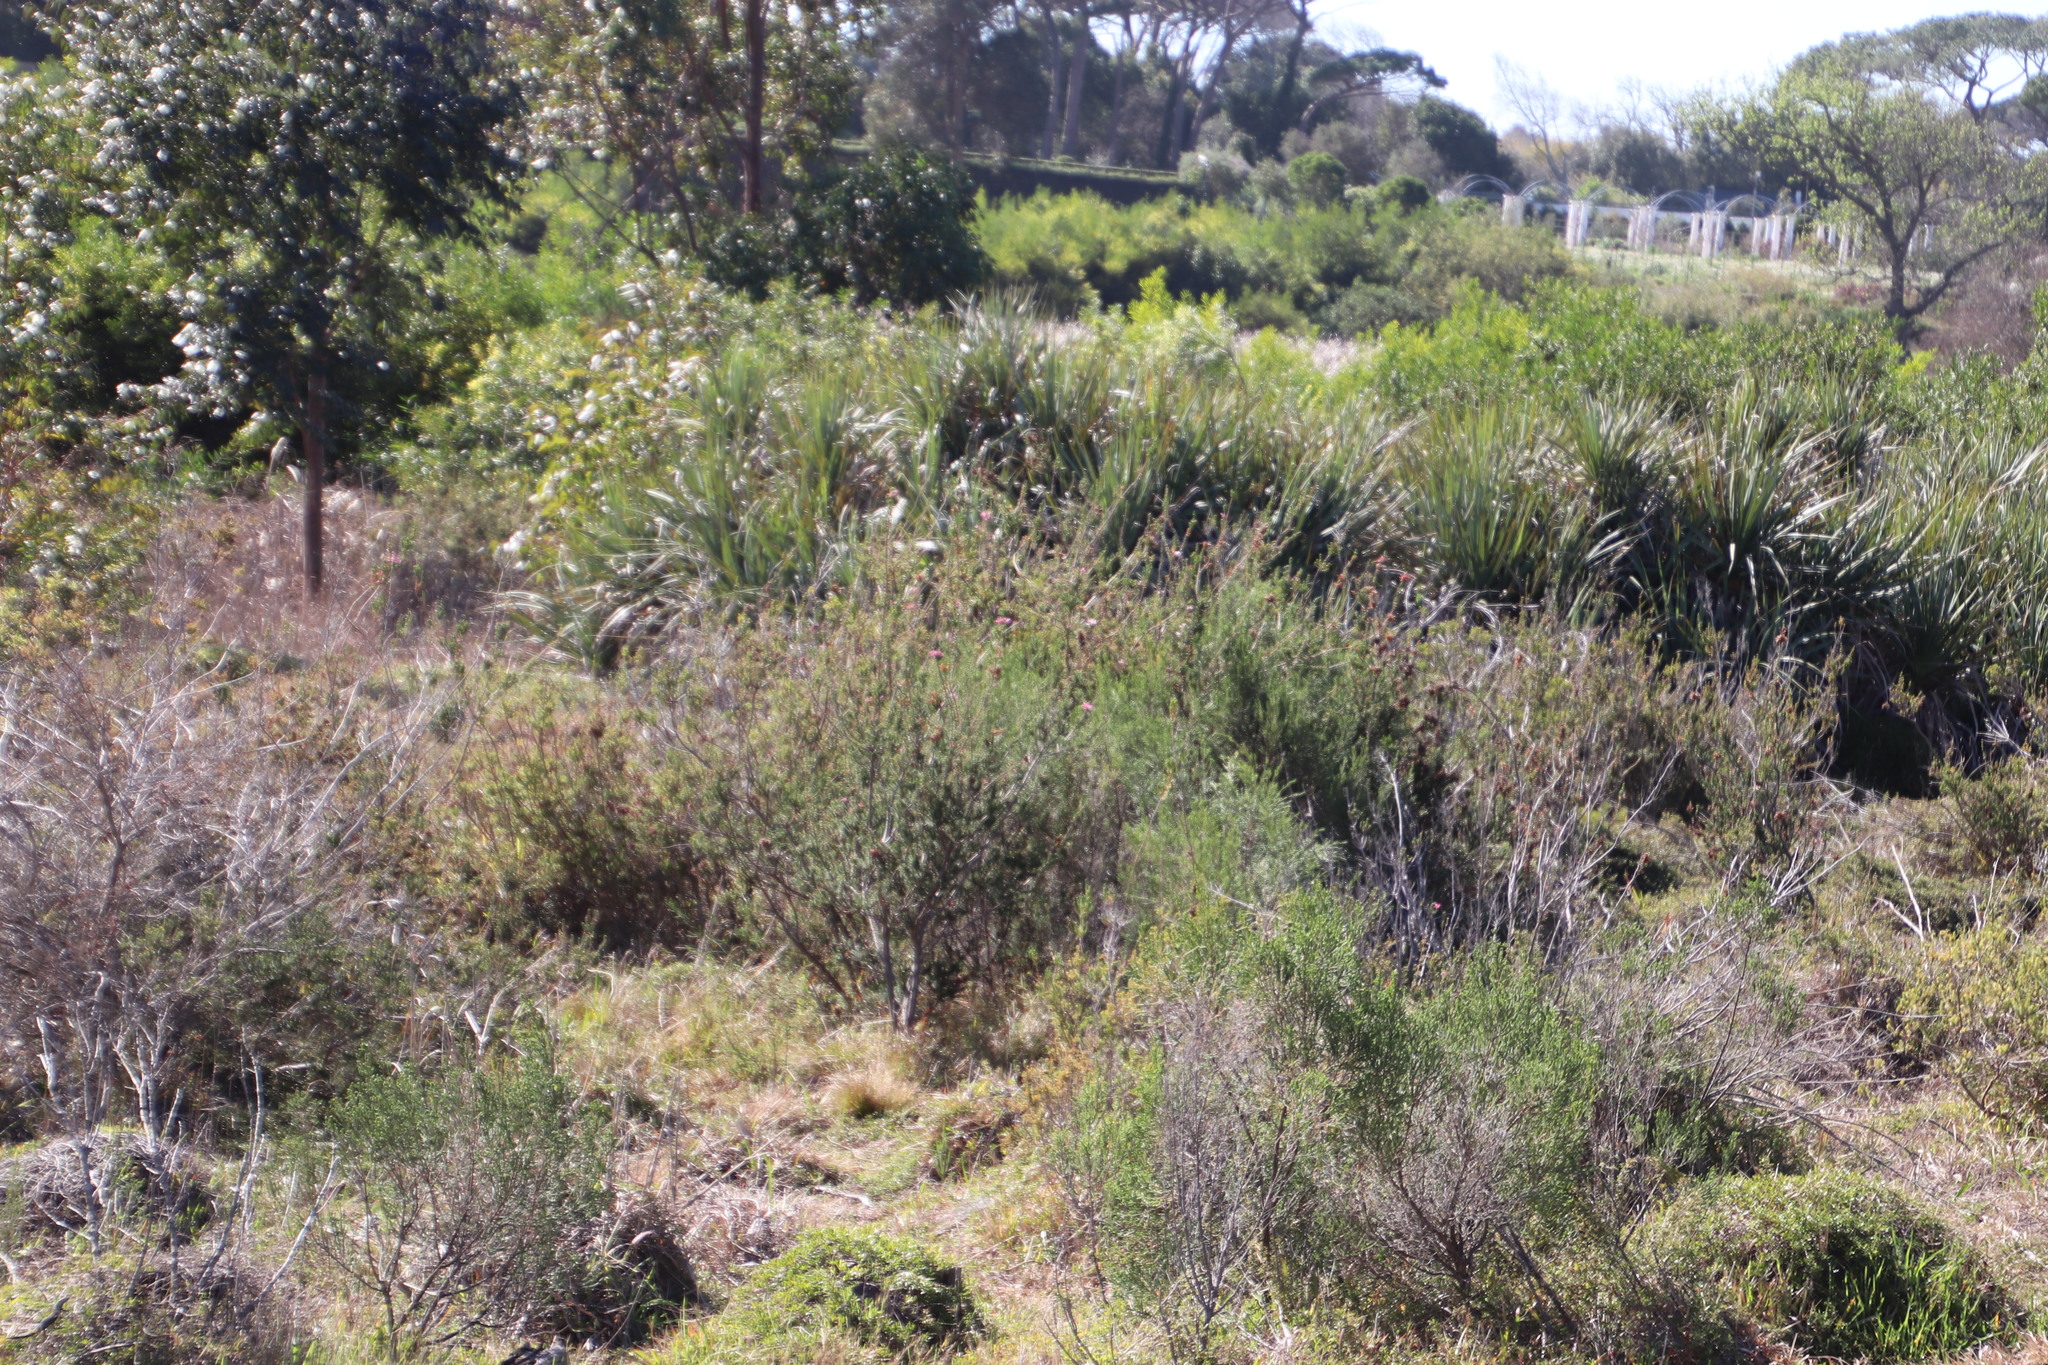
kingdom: Plantae
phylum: Tracheophyta
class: Magnoliopsida
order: Ericales
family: Ericaceae
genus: Erica
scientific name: Erica verticillata
